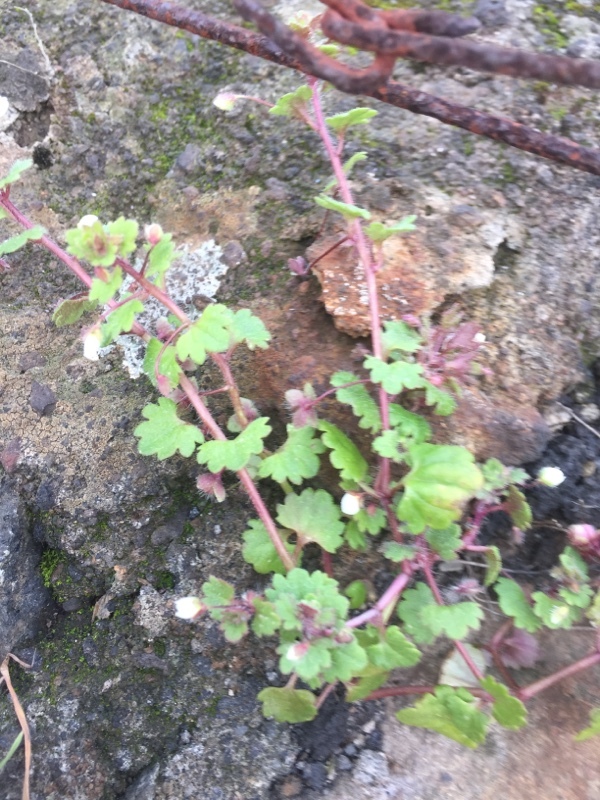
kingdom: Plantae
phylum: Tracheophyta
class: Magnoliopsida
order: Lamiales
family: Plantaginaceae
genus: Veronica
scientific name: Veronica cymbalaria
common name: Pale speedwell
